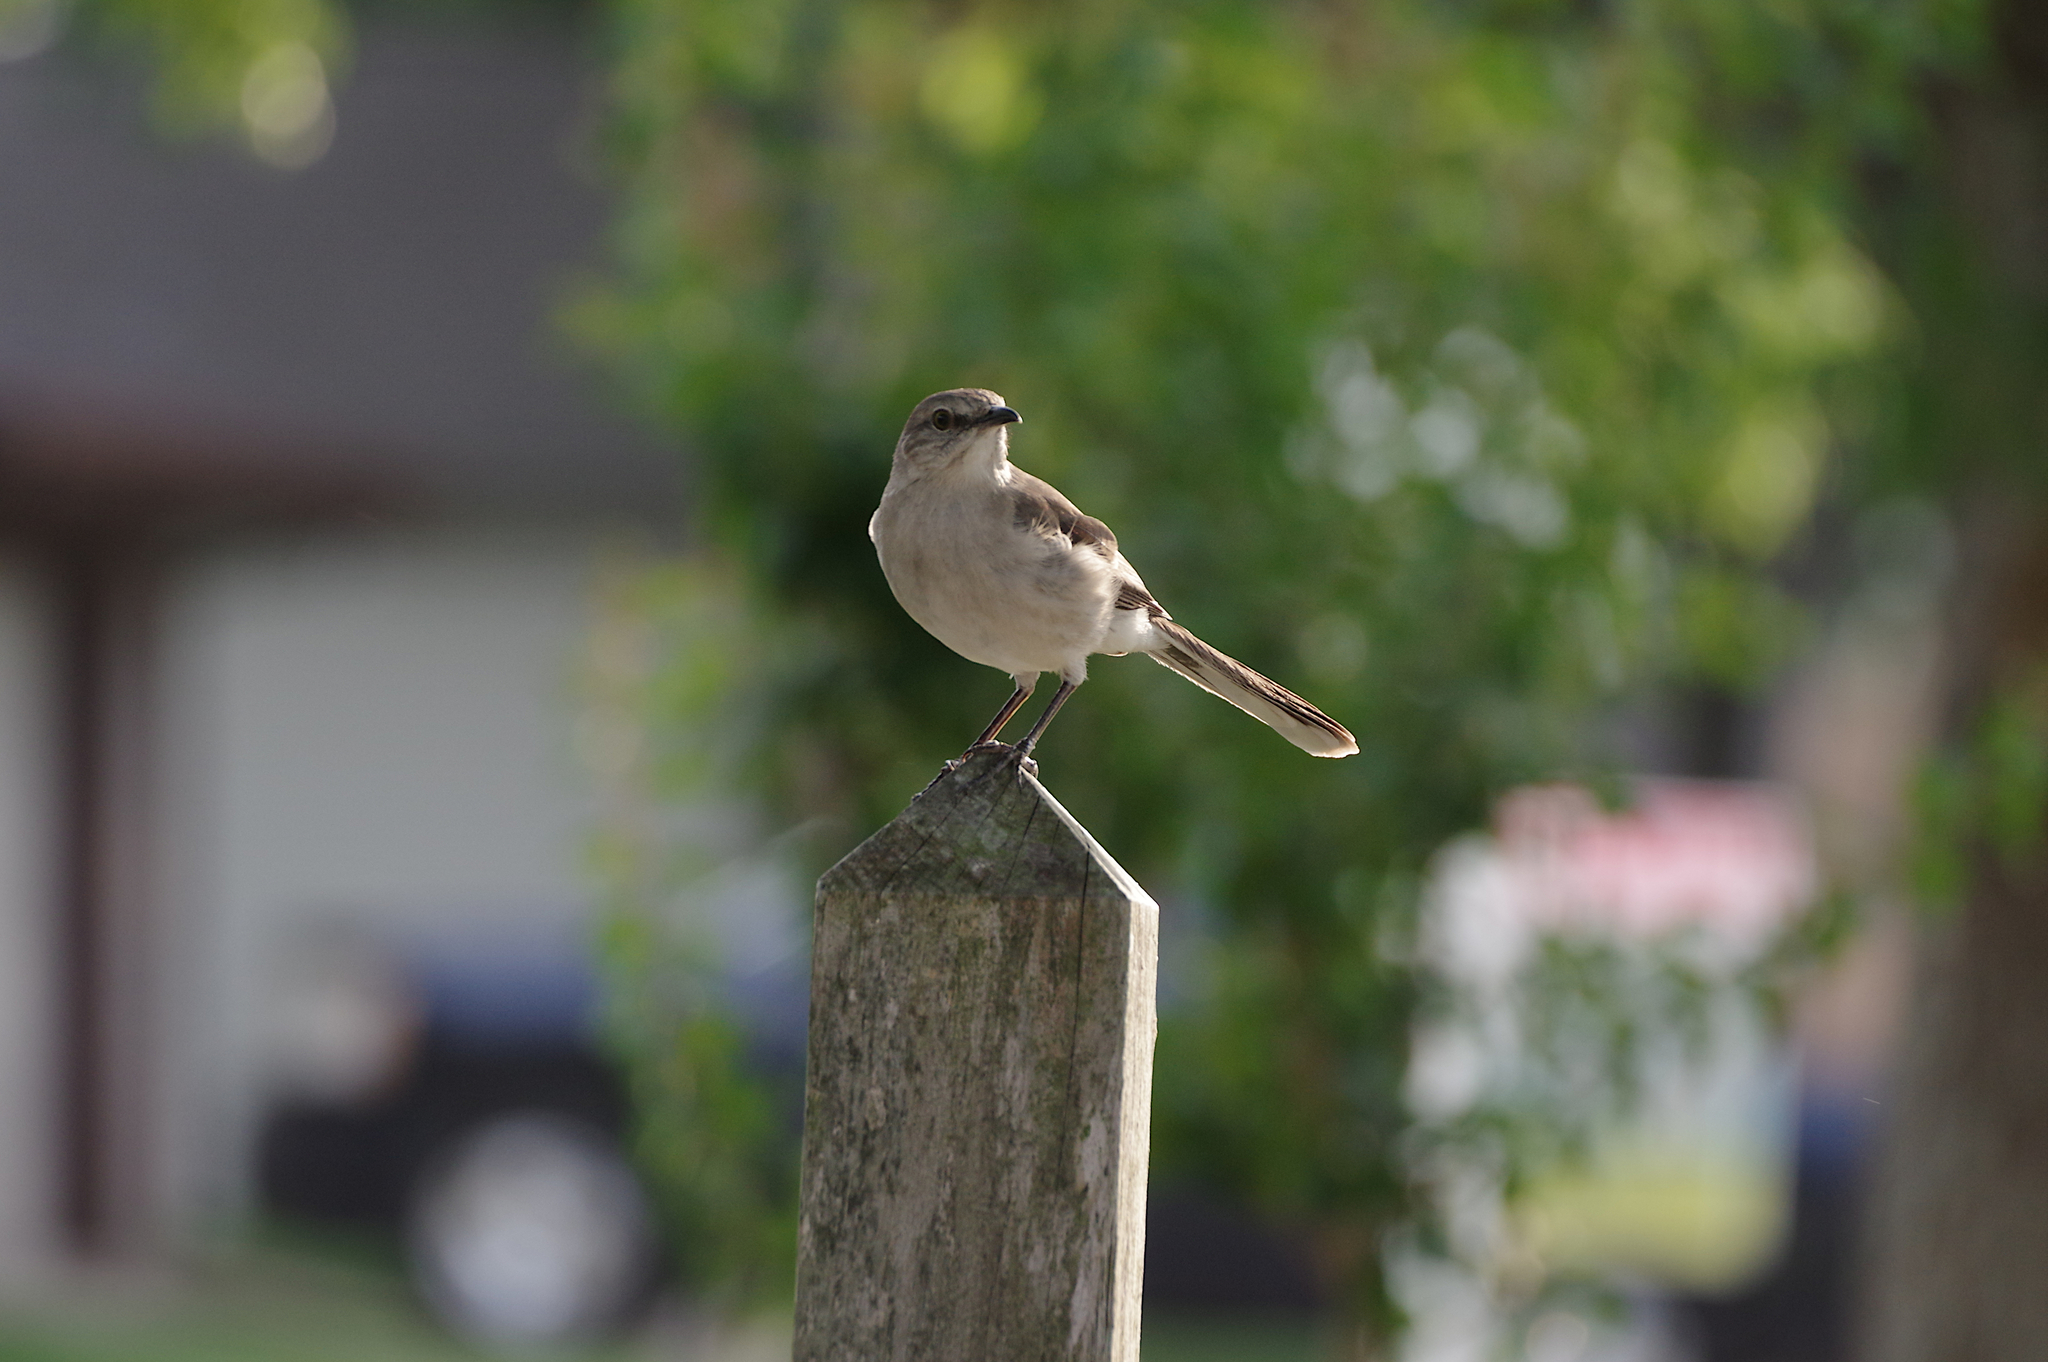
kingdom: Animalia
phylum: Chordata
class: Aves
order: Passeriformes
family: Mimidae
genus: Mimus
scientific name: Mimus polyglottos
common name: Northern mockingbird
